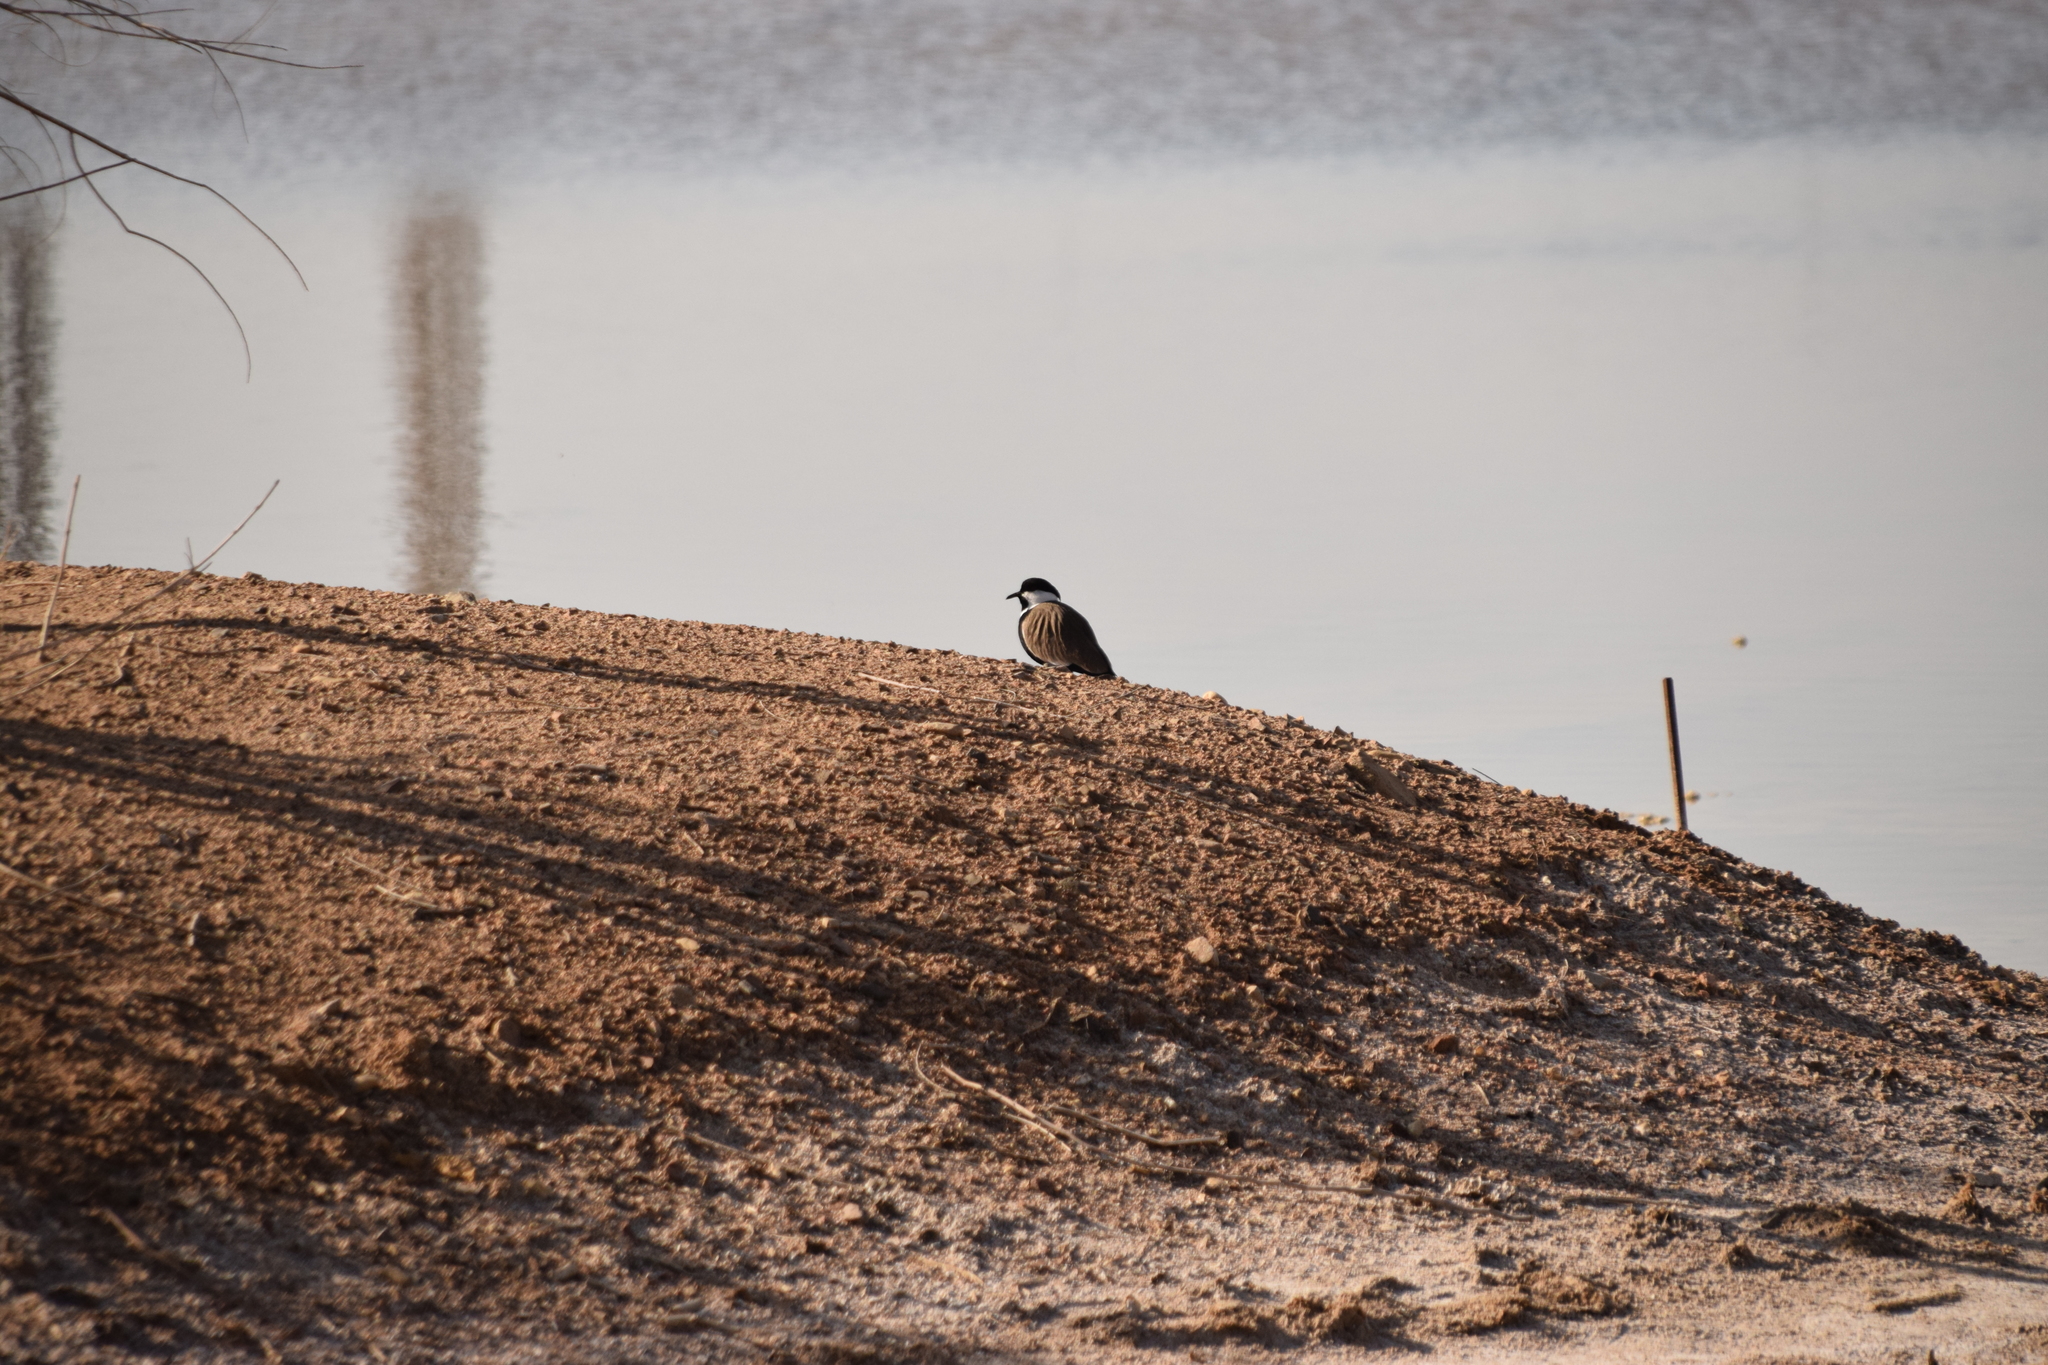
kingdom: Animalia
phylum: Chordata
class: Aves
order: Charadriiformes
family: Charadriidae
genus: Vanellus
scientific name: Vanellus spinosus
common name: Spur-winged lapwing
